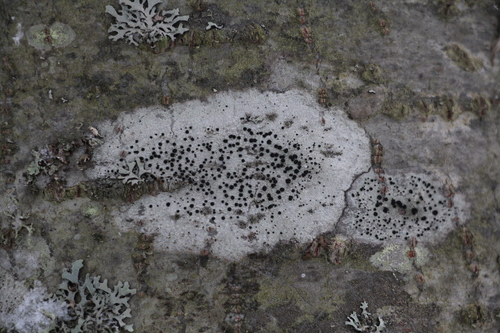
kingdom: Fungi
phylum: Ascomycota
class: Lecanoromycetes
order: Lecanorales
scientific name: Lecanorales
